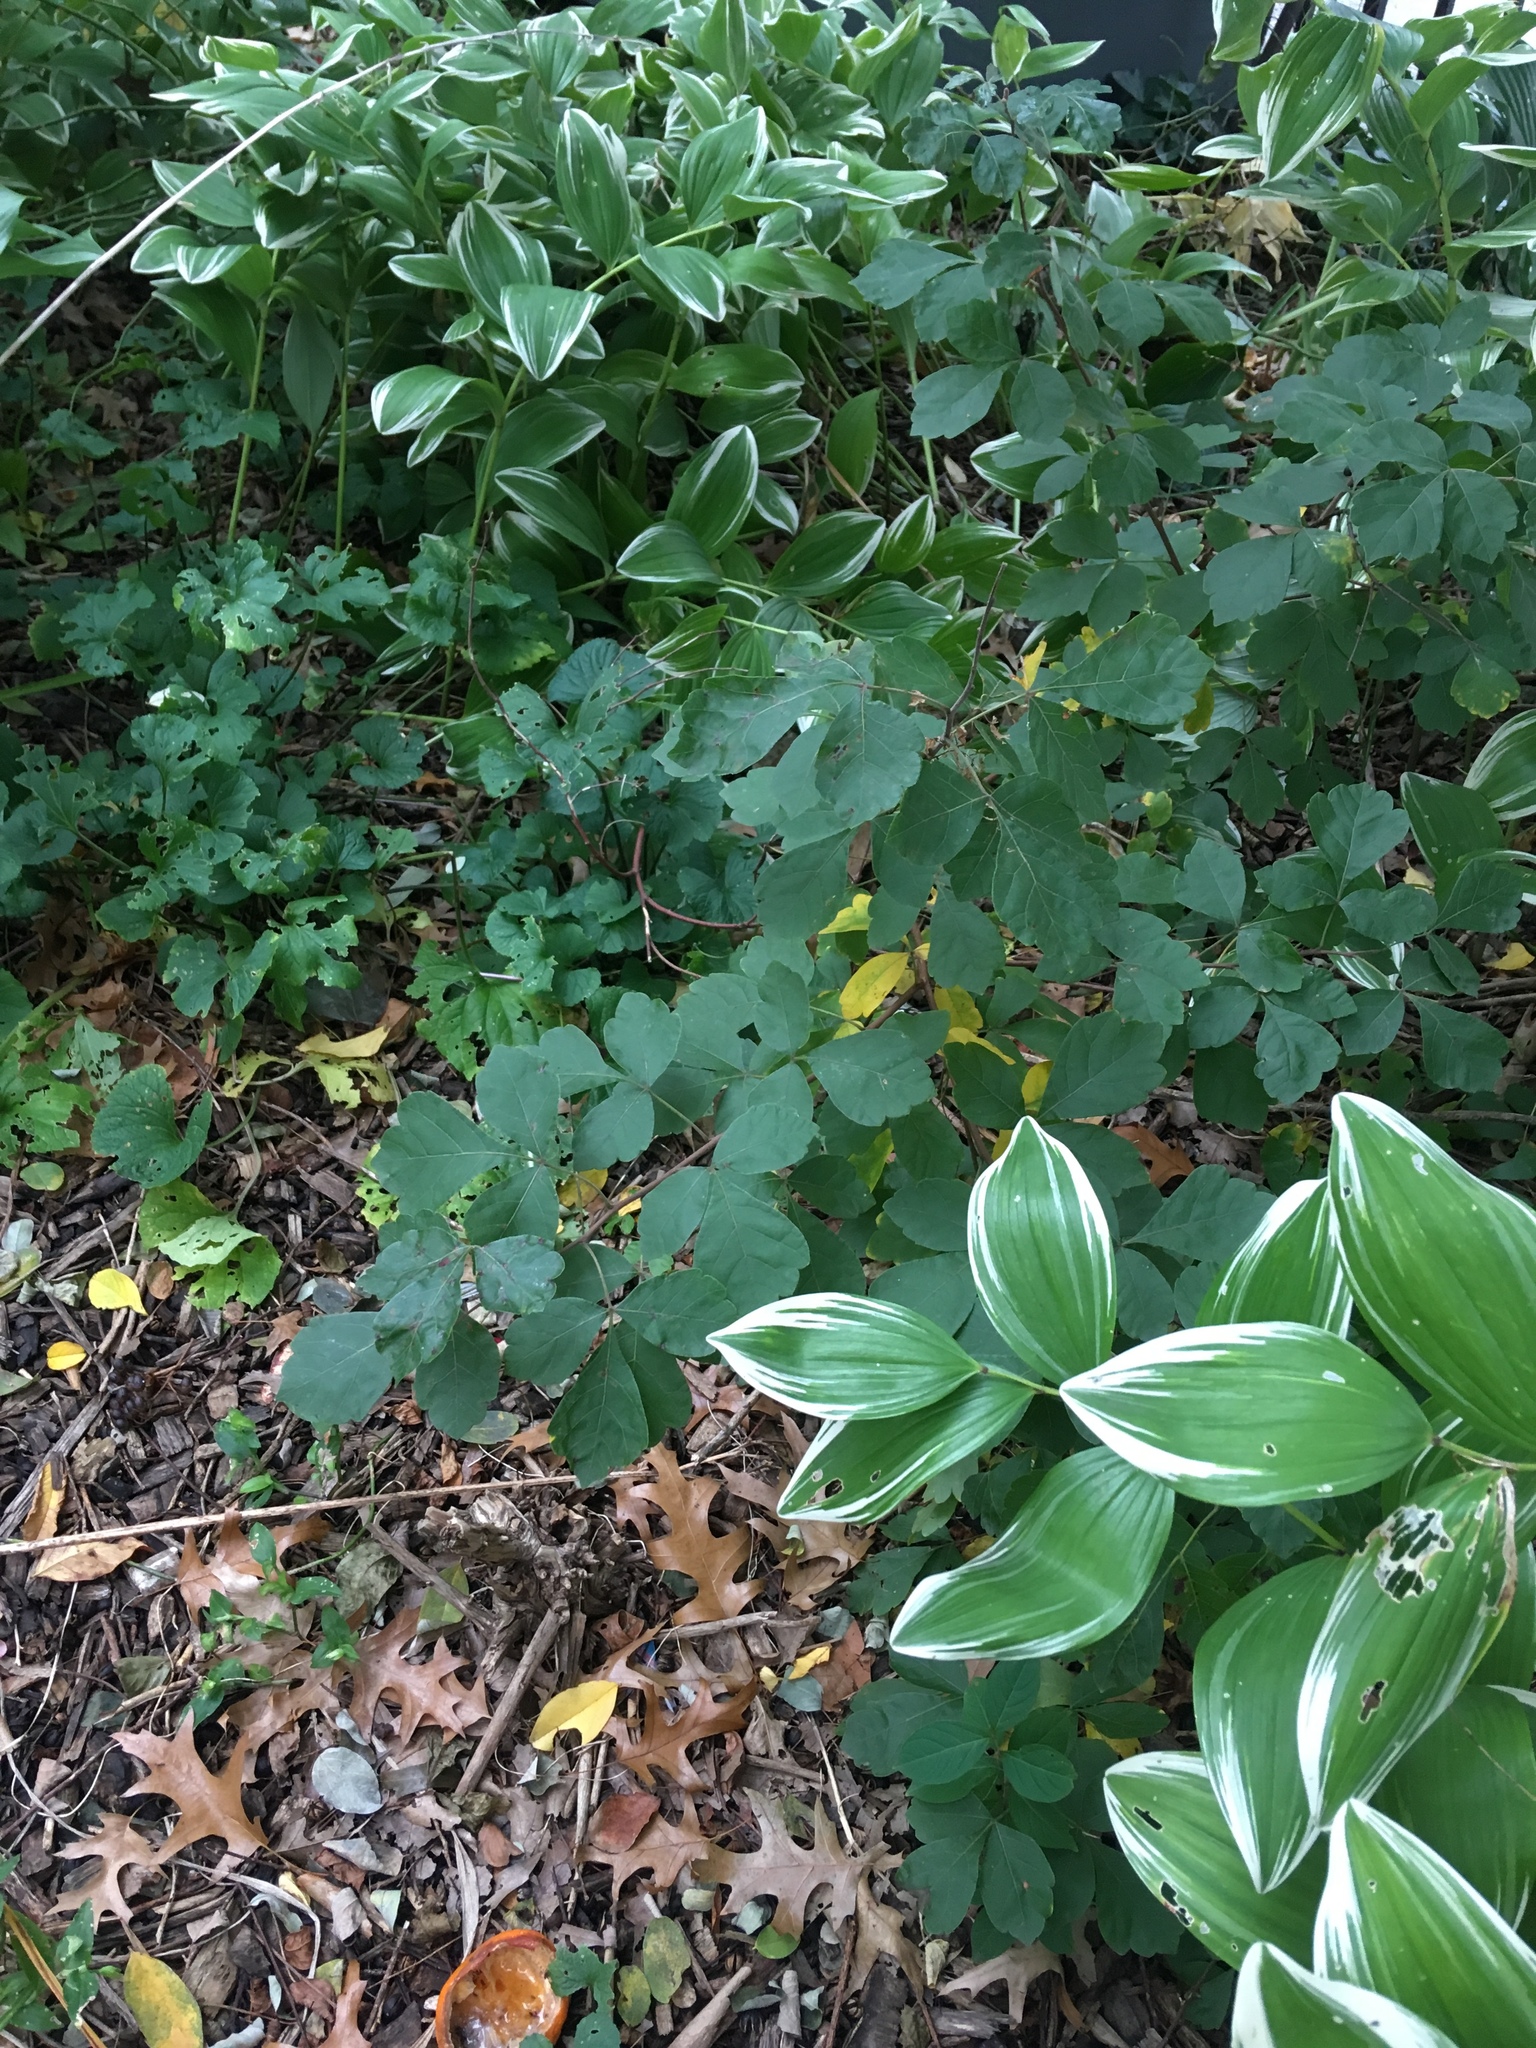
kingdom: Plantae
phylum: Tracheophyta
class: Magnoliopsida
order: Sapindales
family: Anacardiaceae
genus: Rhus
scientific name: Rhus aromatica
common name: Aromatic sumac
